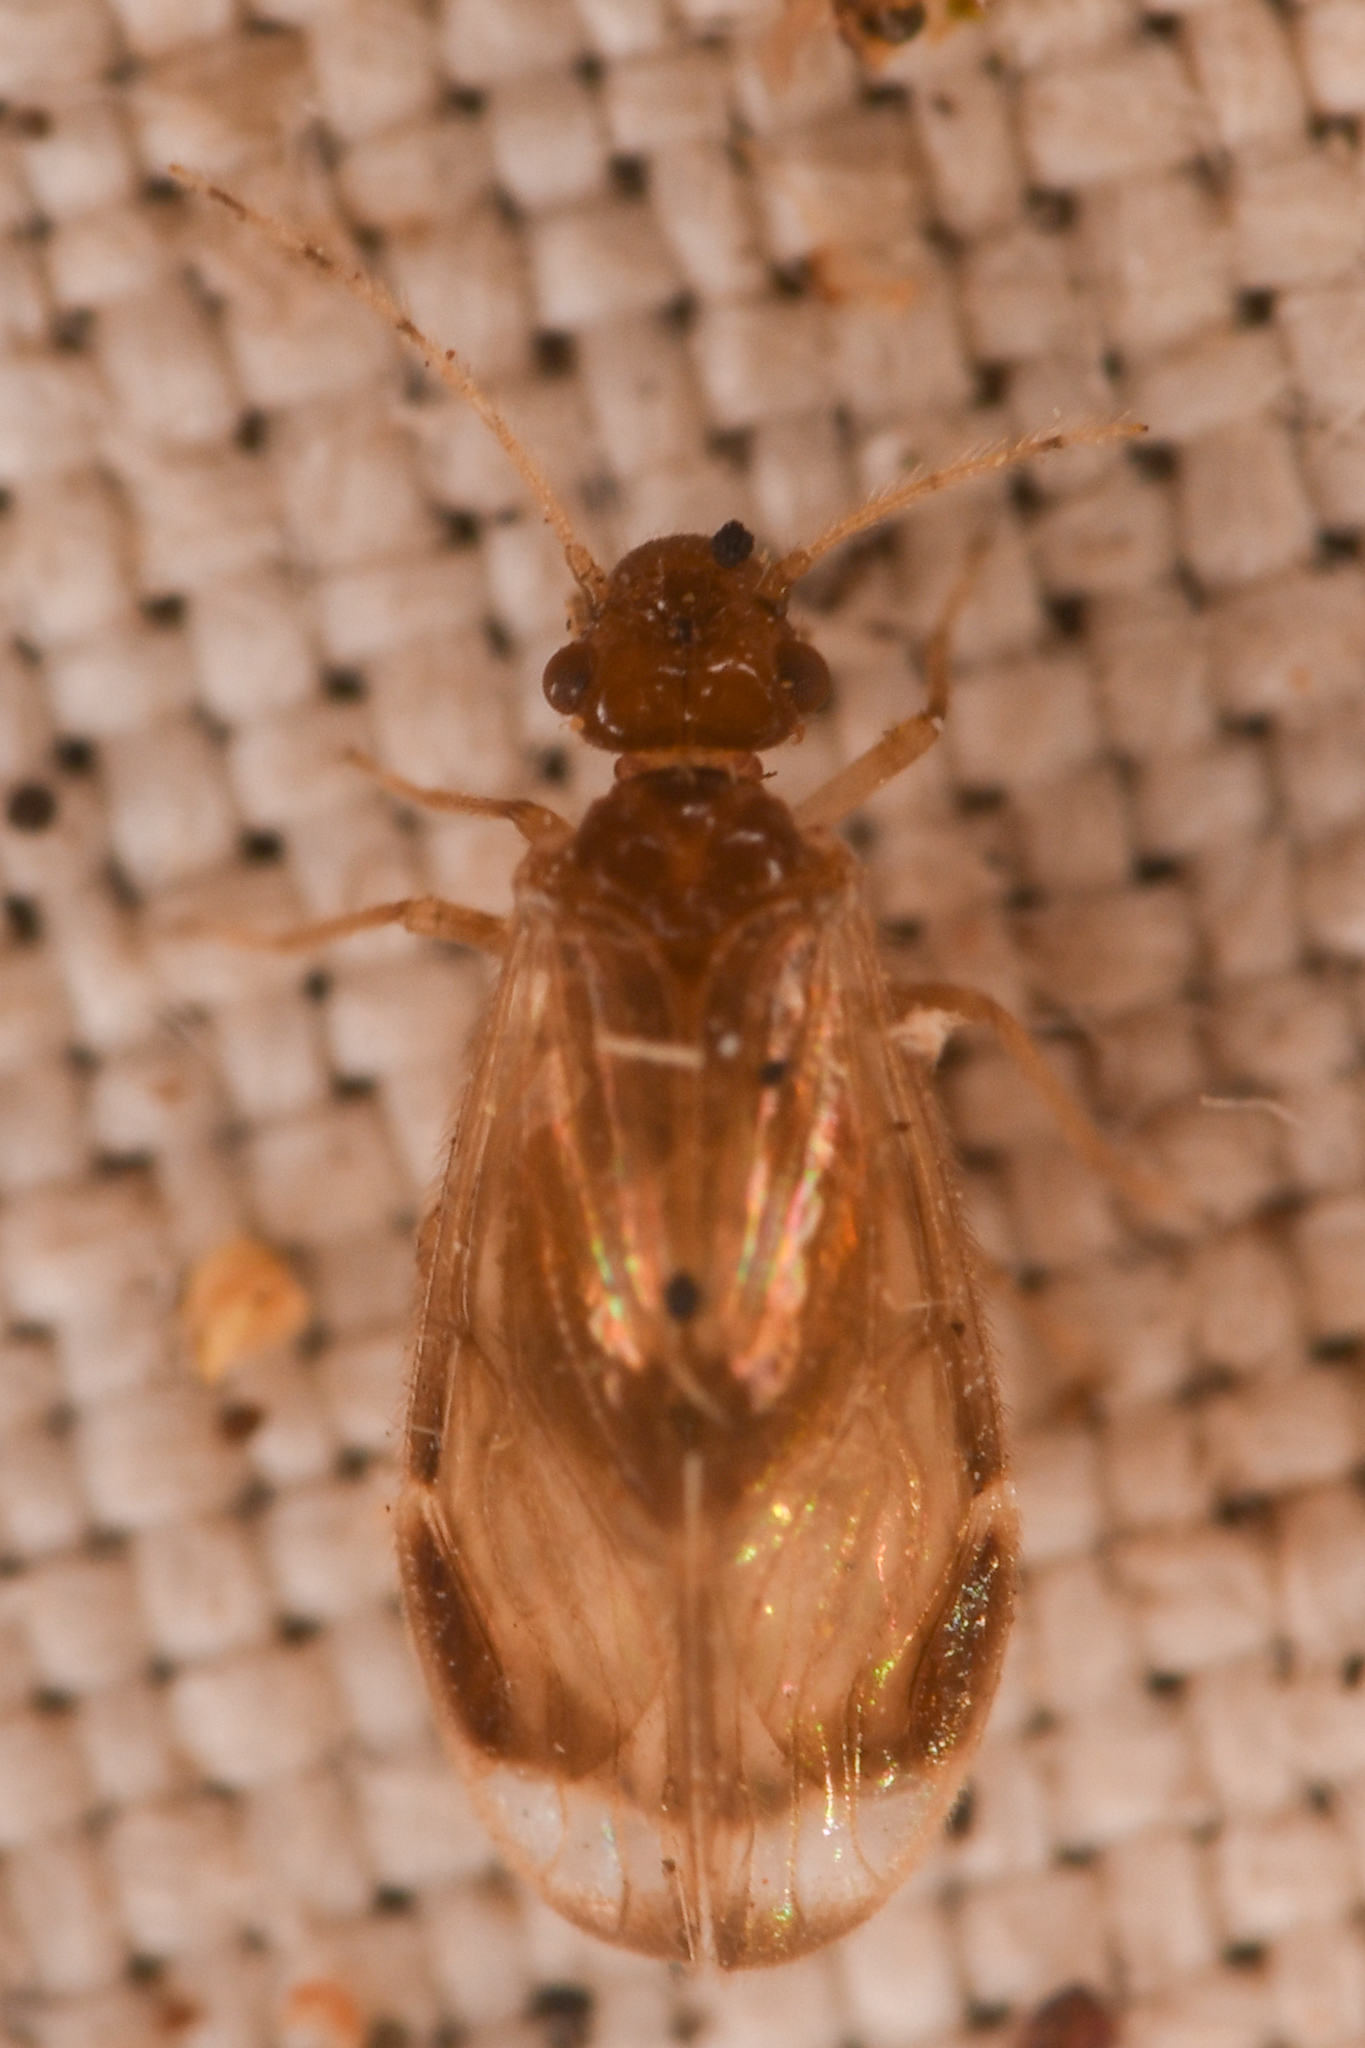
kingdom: Animalia
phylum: Arthropoda
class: Insecta
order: Psocodea
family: Amphipsocidae
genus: Polypsocus
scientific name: Polypsocus corruptus
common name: Corrupt barklouse
